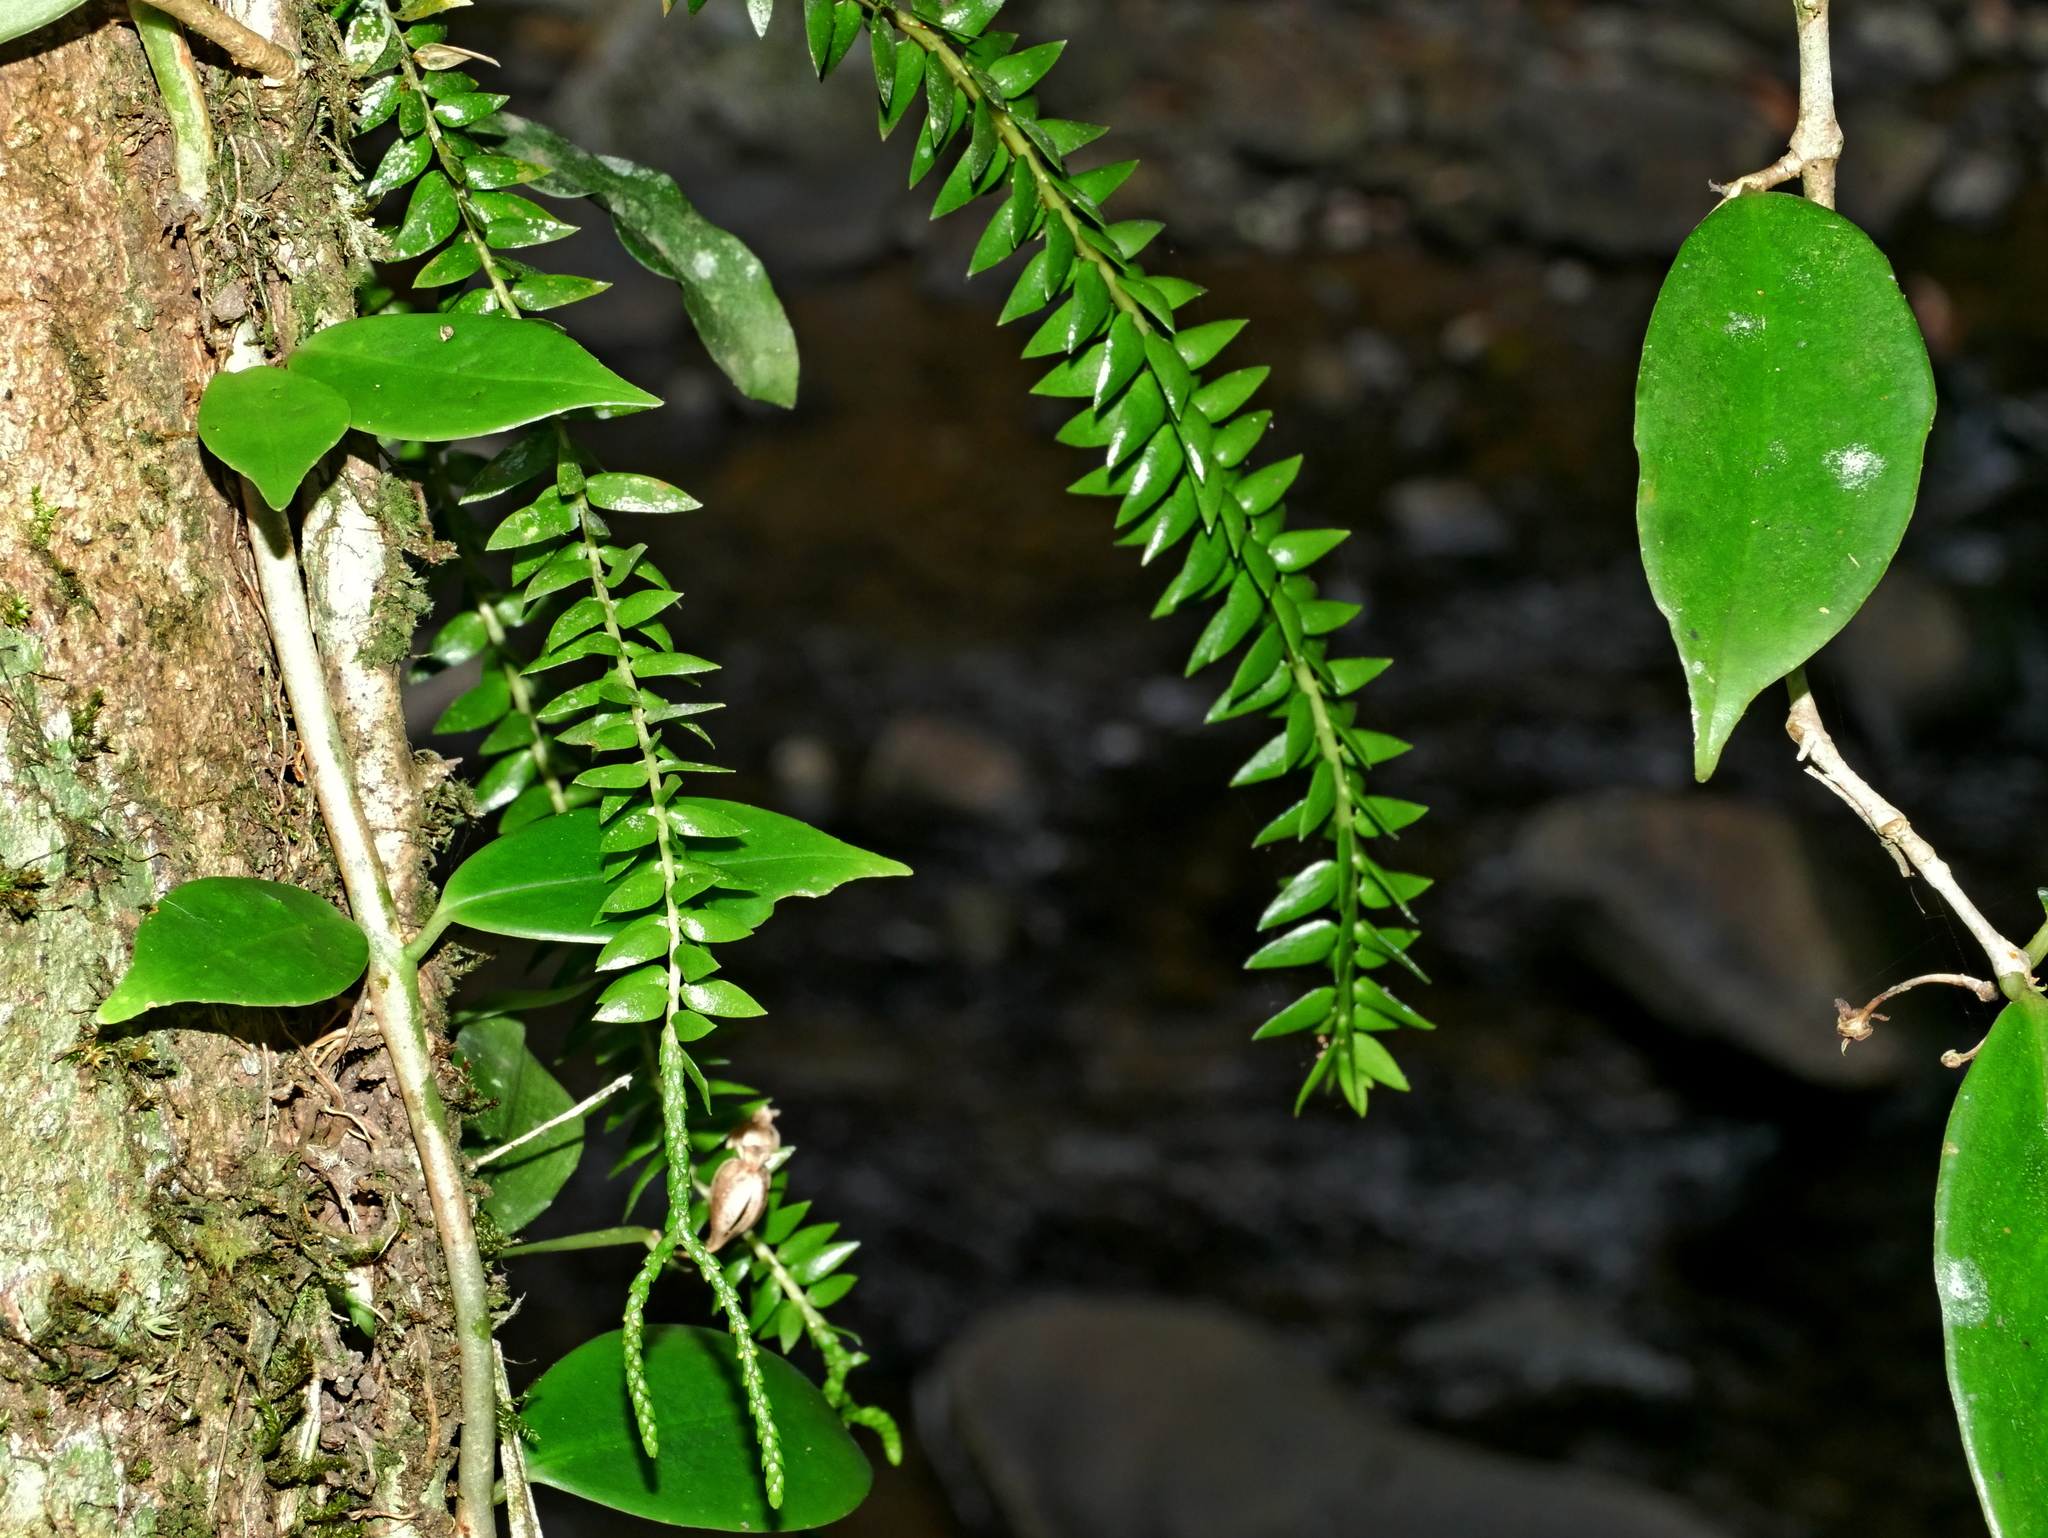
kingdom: Plantae
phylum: Tracheophyta
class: Lycopodiopsida
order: Lycopodiales
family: Lycopodiaceae
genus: Phlegmariurus
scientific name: Phlegmariurus phlegmaria
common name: Coarse tassel-fern
